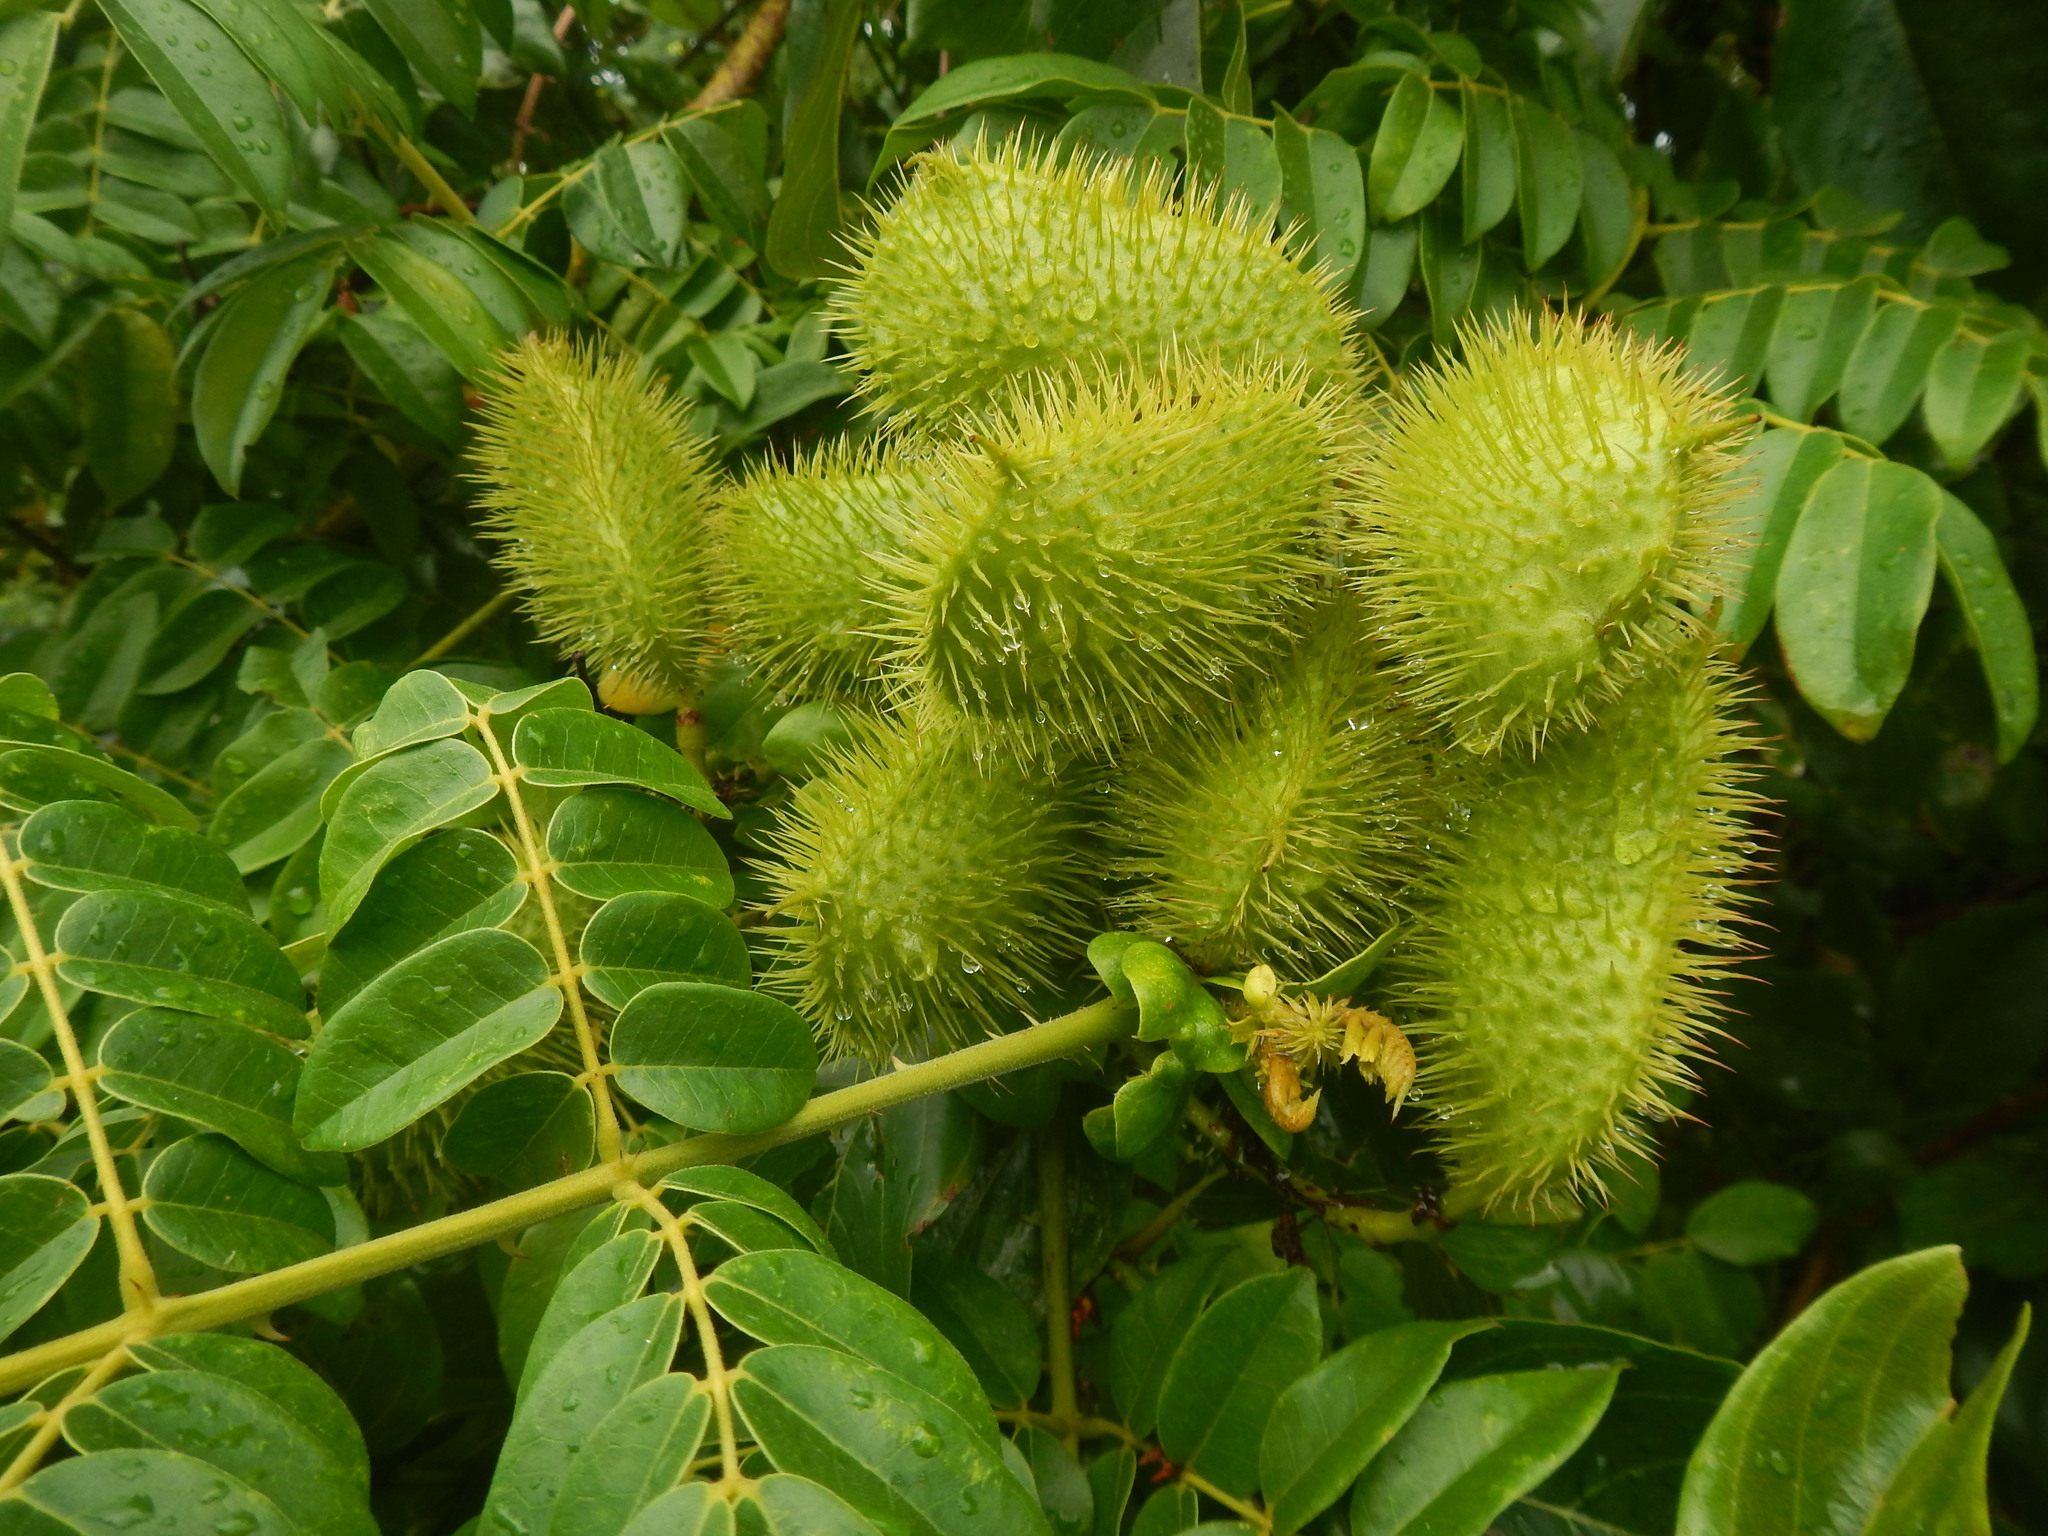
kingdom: Plantae
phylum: Tracheophyta
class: Magnoliopsida
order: Fabales
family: Fabaceae
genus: Guilandina
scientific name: Guilandina bonduc
